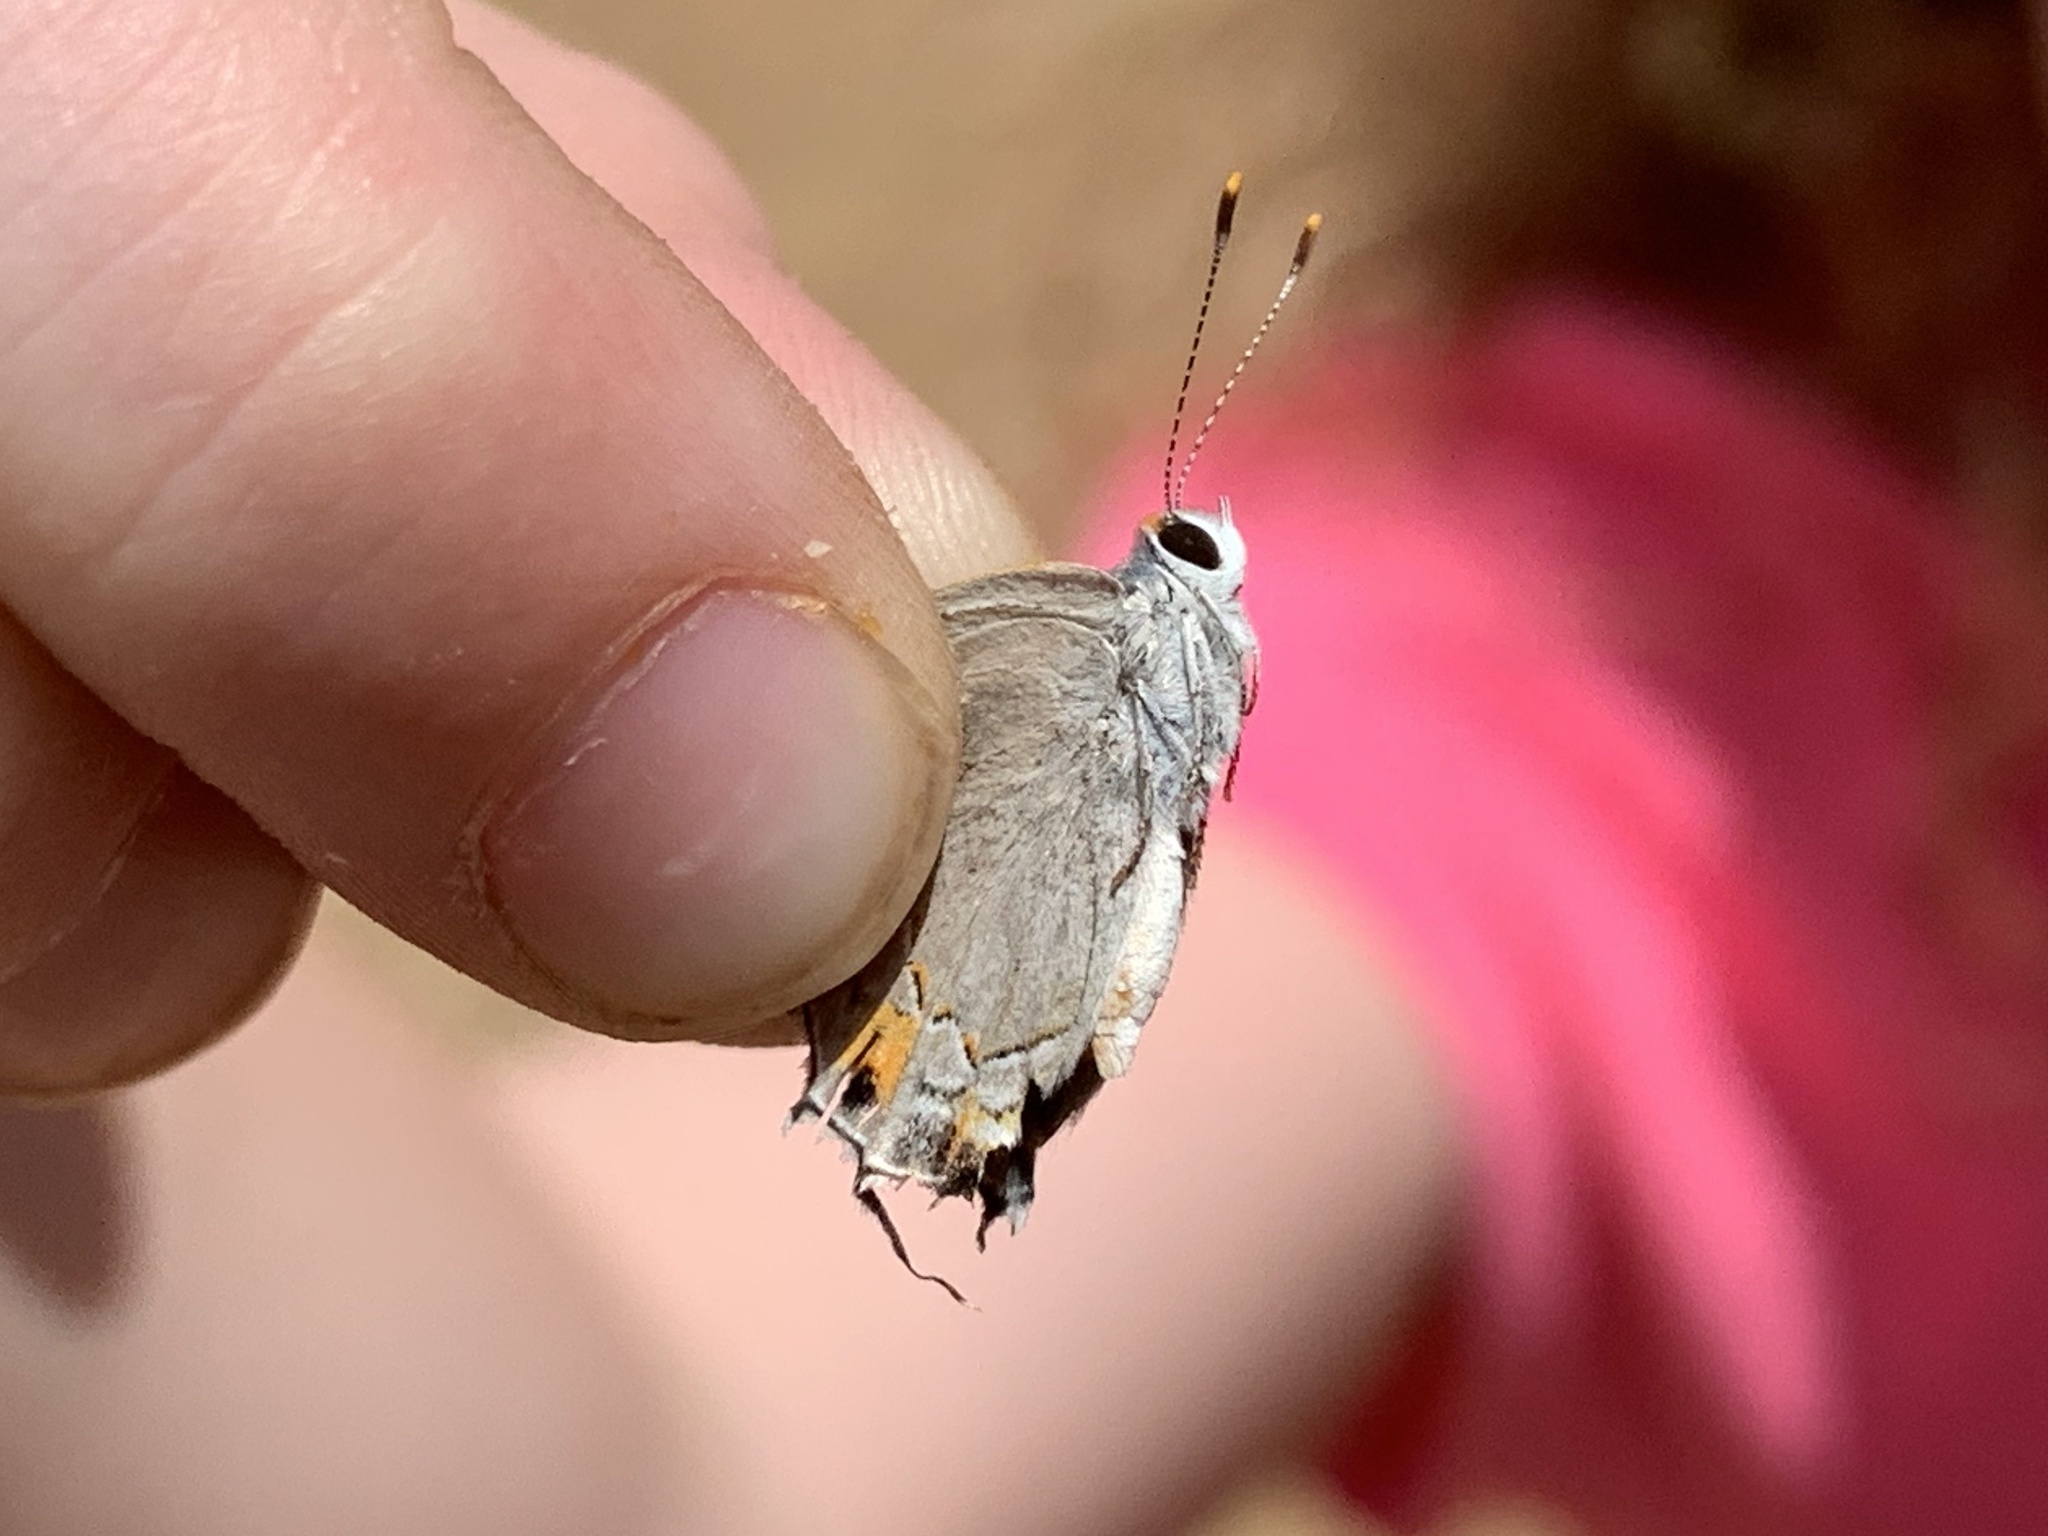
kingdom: Animalia
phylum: Arthropoda
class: Insecta
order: Lepidoptera
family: Lycaenidae
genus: Strymon
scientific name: Strymon melinus
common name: Gray hairstreak
